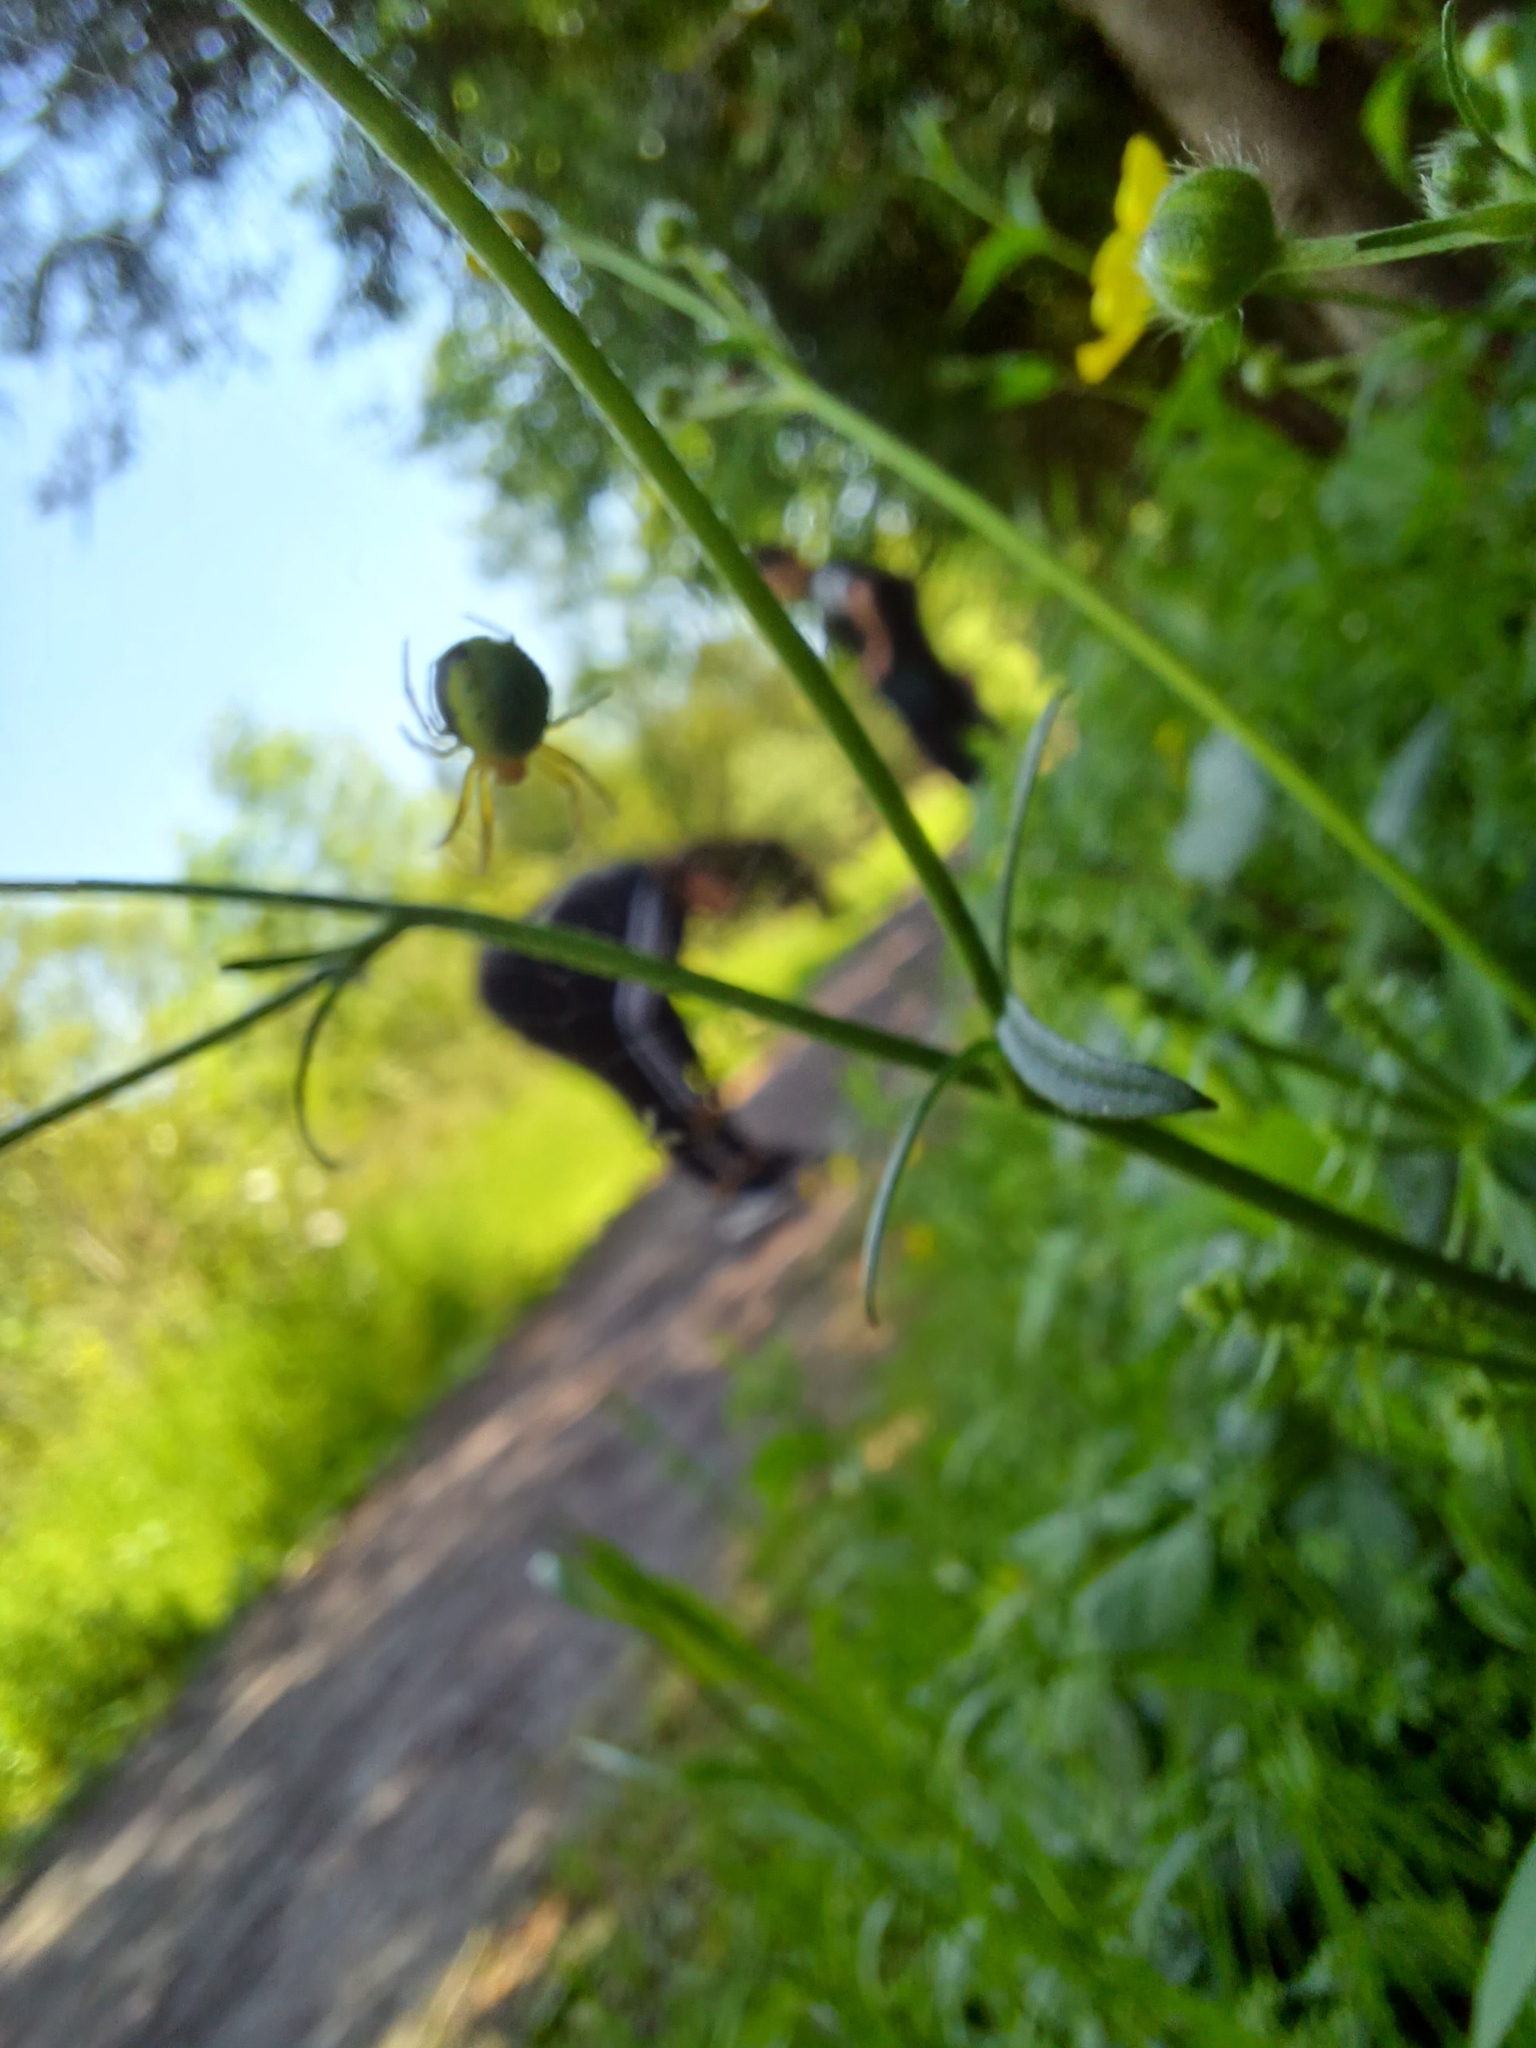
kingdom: Animalia
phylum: Arthropoda
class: Arachnida
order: Araneae
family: Araneidae
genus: Araniella
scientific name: Araniella displicata
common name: Sixspotted orb weaver
